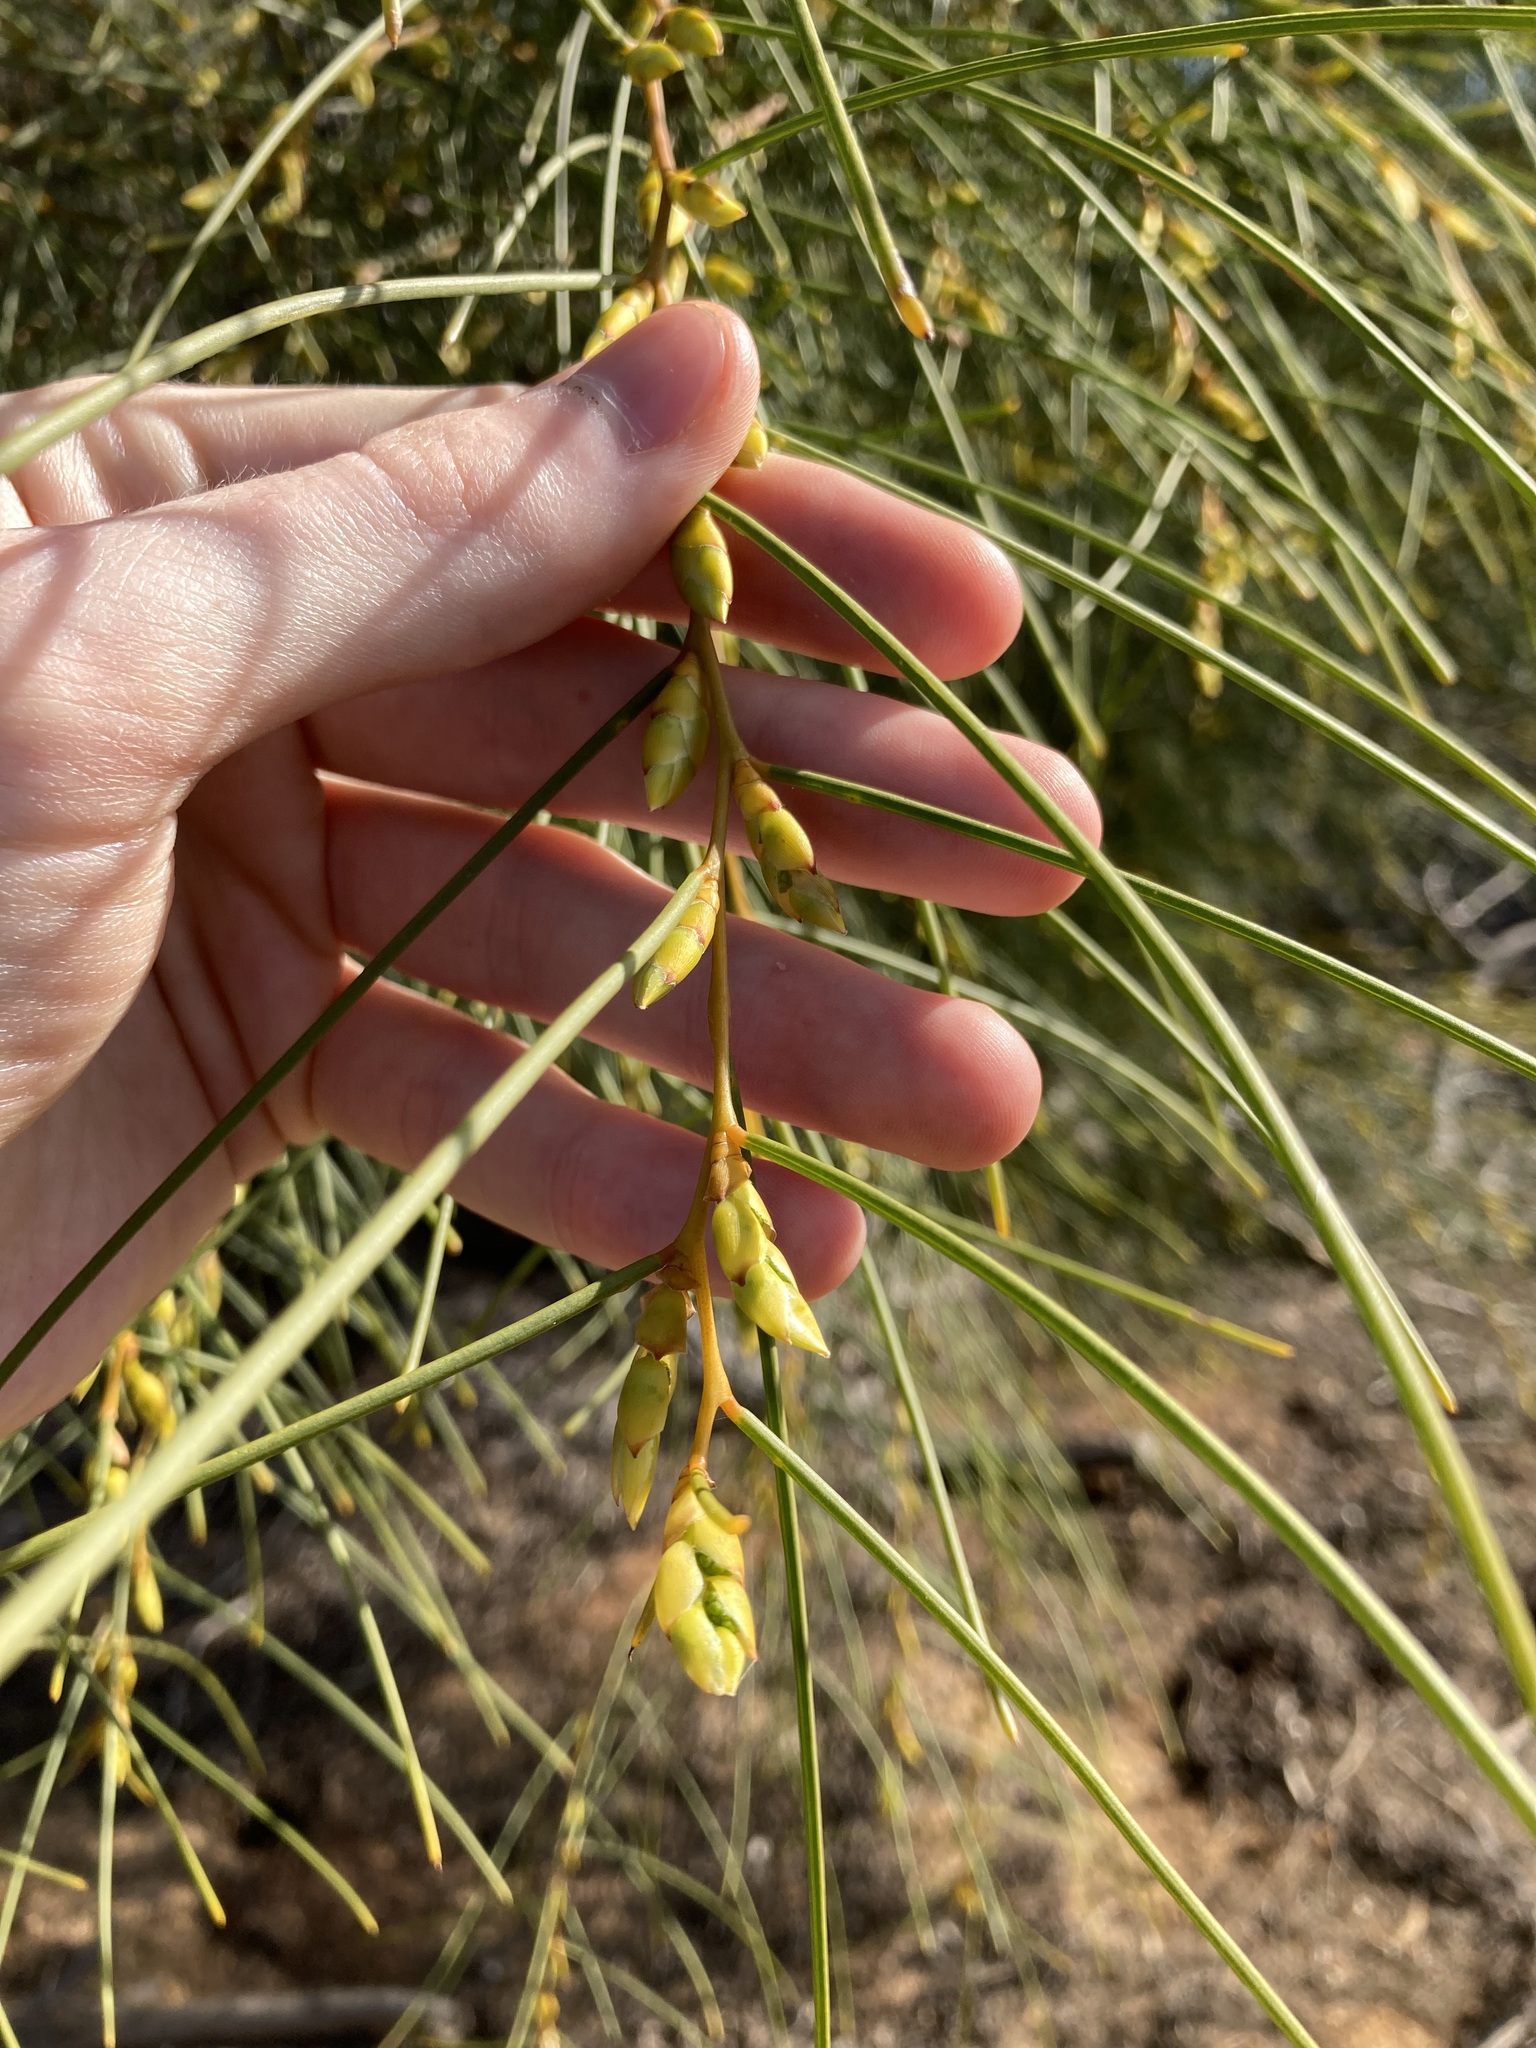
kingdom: Plantae
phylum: Tracheophyta
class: Magnoliopsida
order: Fabales
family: Fabaceae
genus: Acacia
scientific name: Acacia scirpifolia
